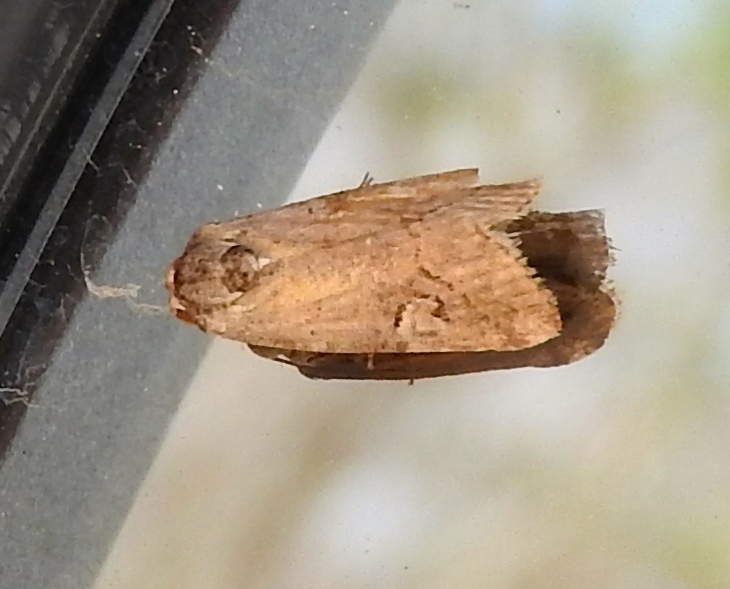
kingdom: Animalia
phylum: Arthropoda
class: Insecta
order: Lepidoptera
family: Noctuidae
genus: Metaponpneumata
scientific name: Metaponpneumata rogenhoferi
